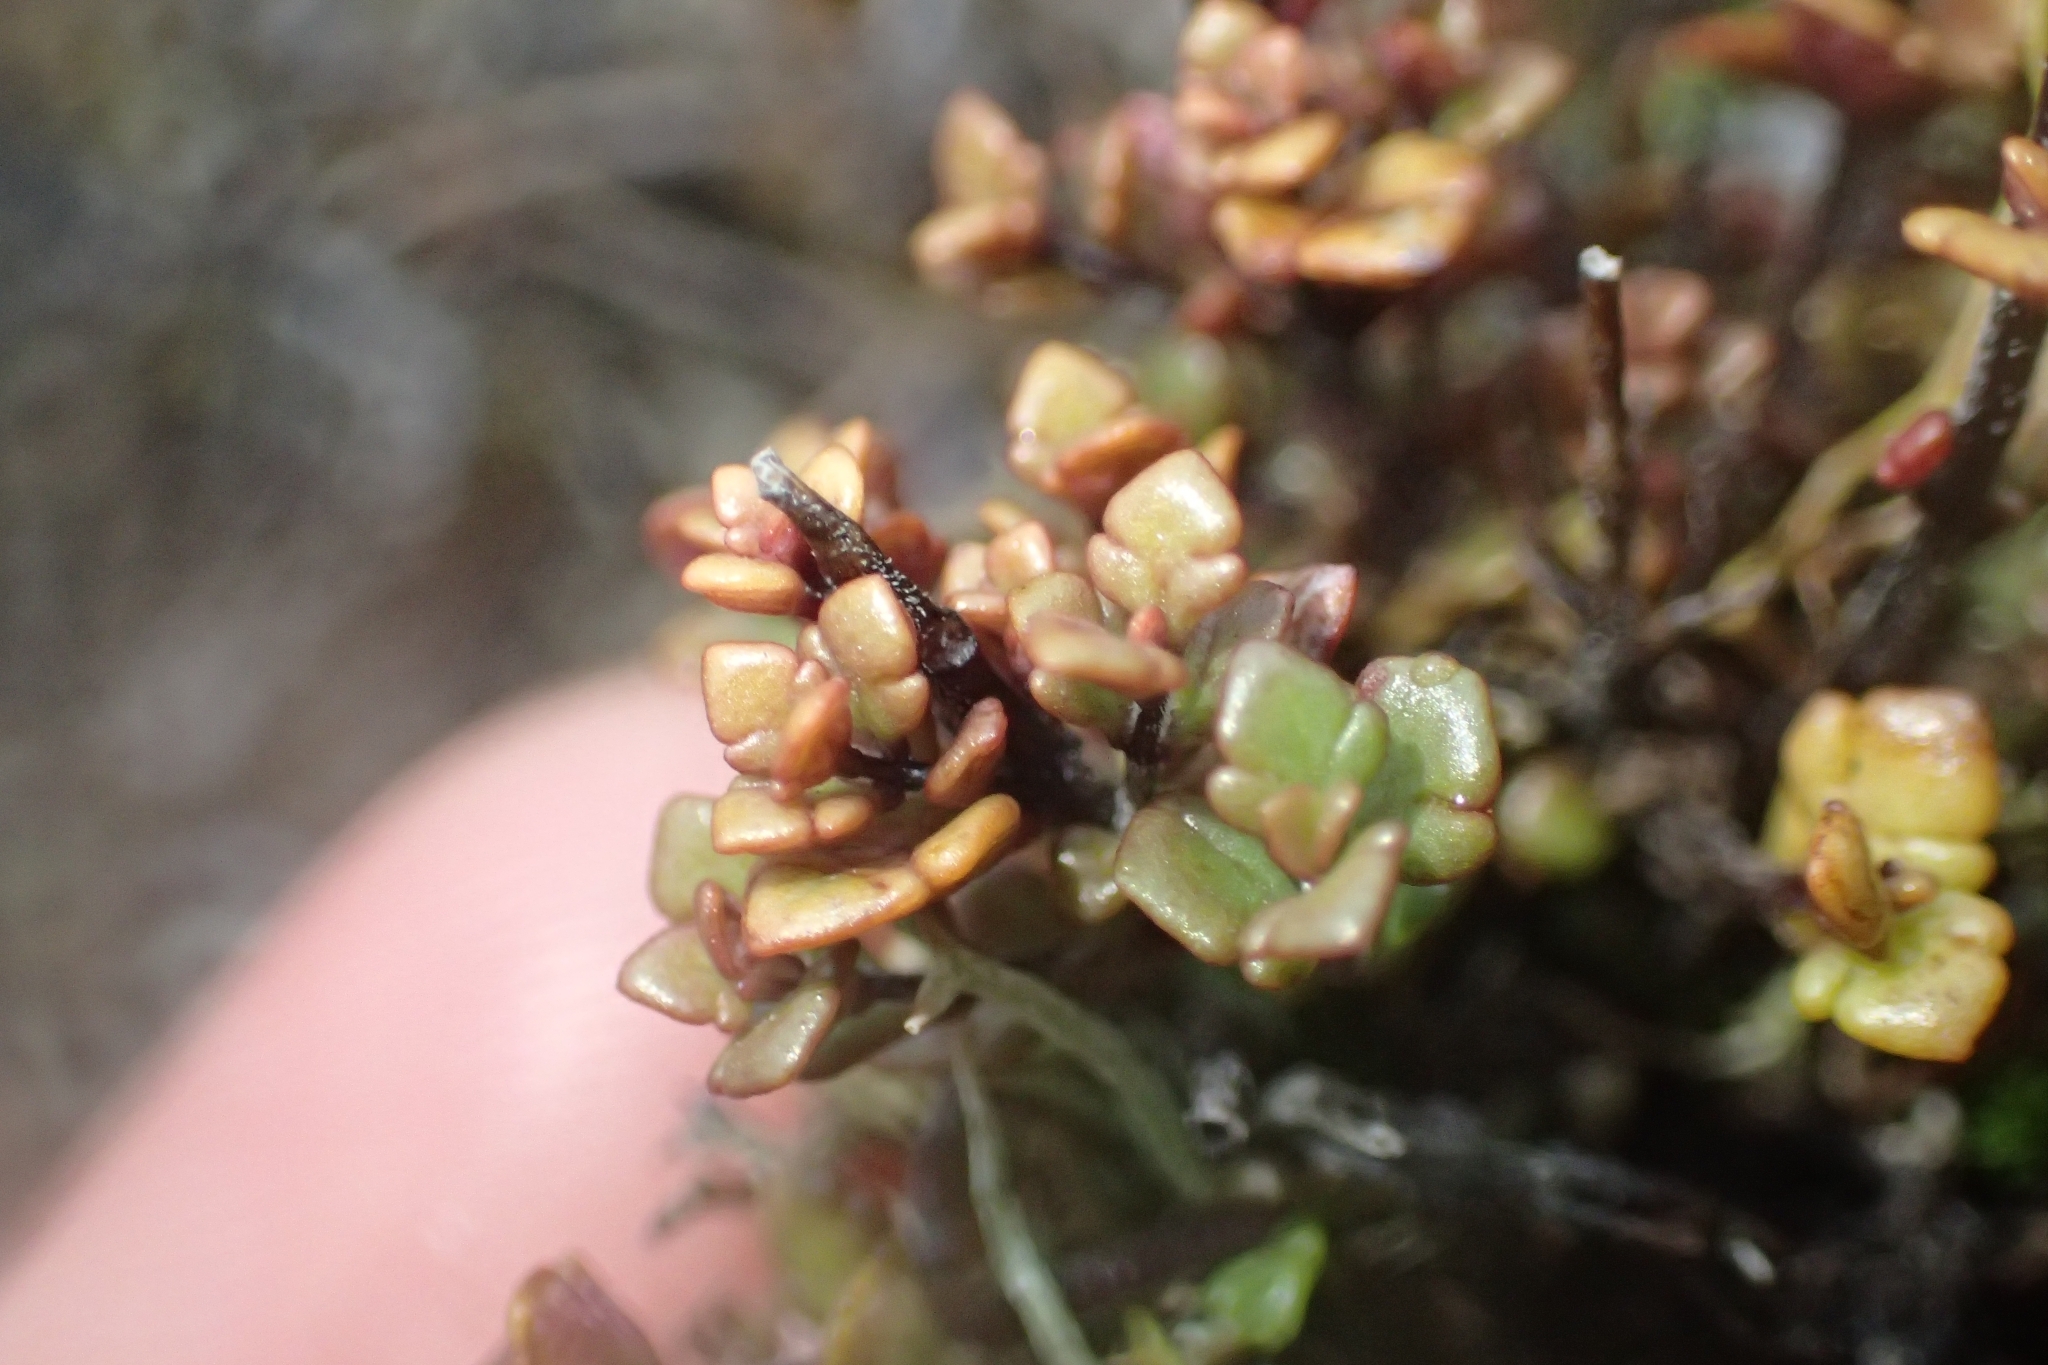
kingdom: Plantae
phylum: Tracheophyta
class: Magnoliopsida
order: Lamiales
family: Orobanchaceae
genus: Euphrasia
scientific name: Euphrasia cuneata
